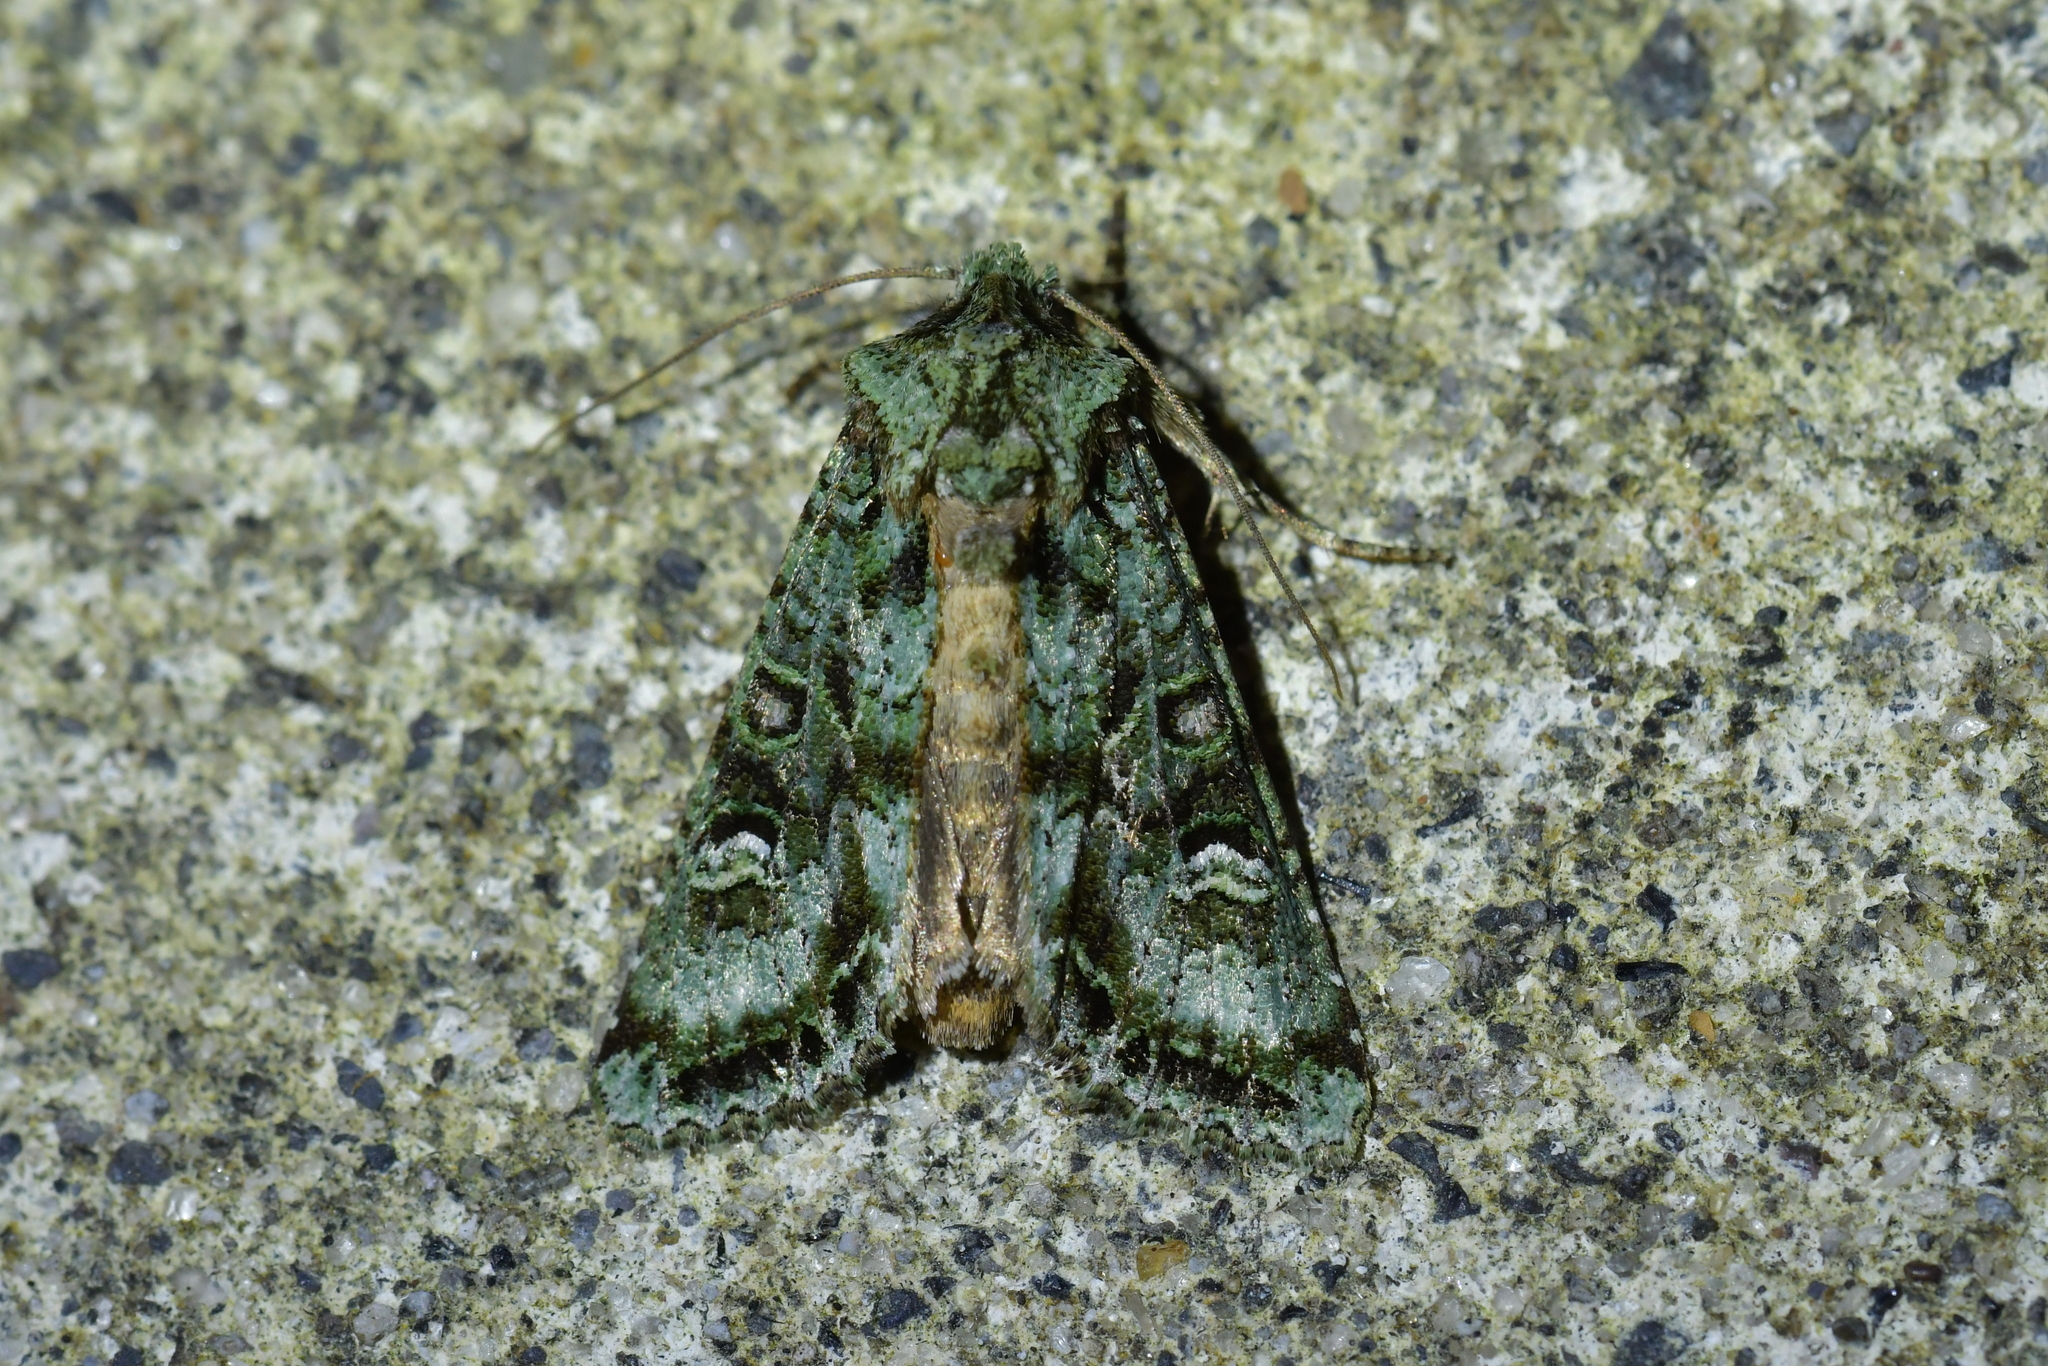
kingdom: Animalia
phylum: Arthropoda
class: Insecta
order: Lepidoptera
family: Noctuidae
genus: Ichneutica
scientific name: Ichneutica
